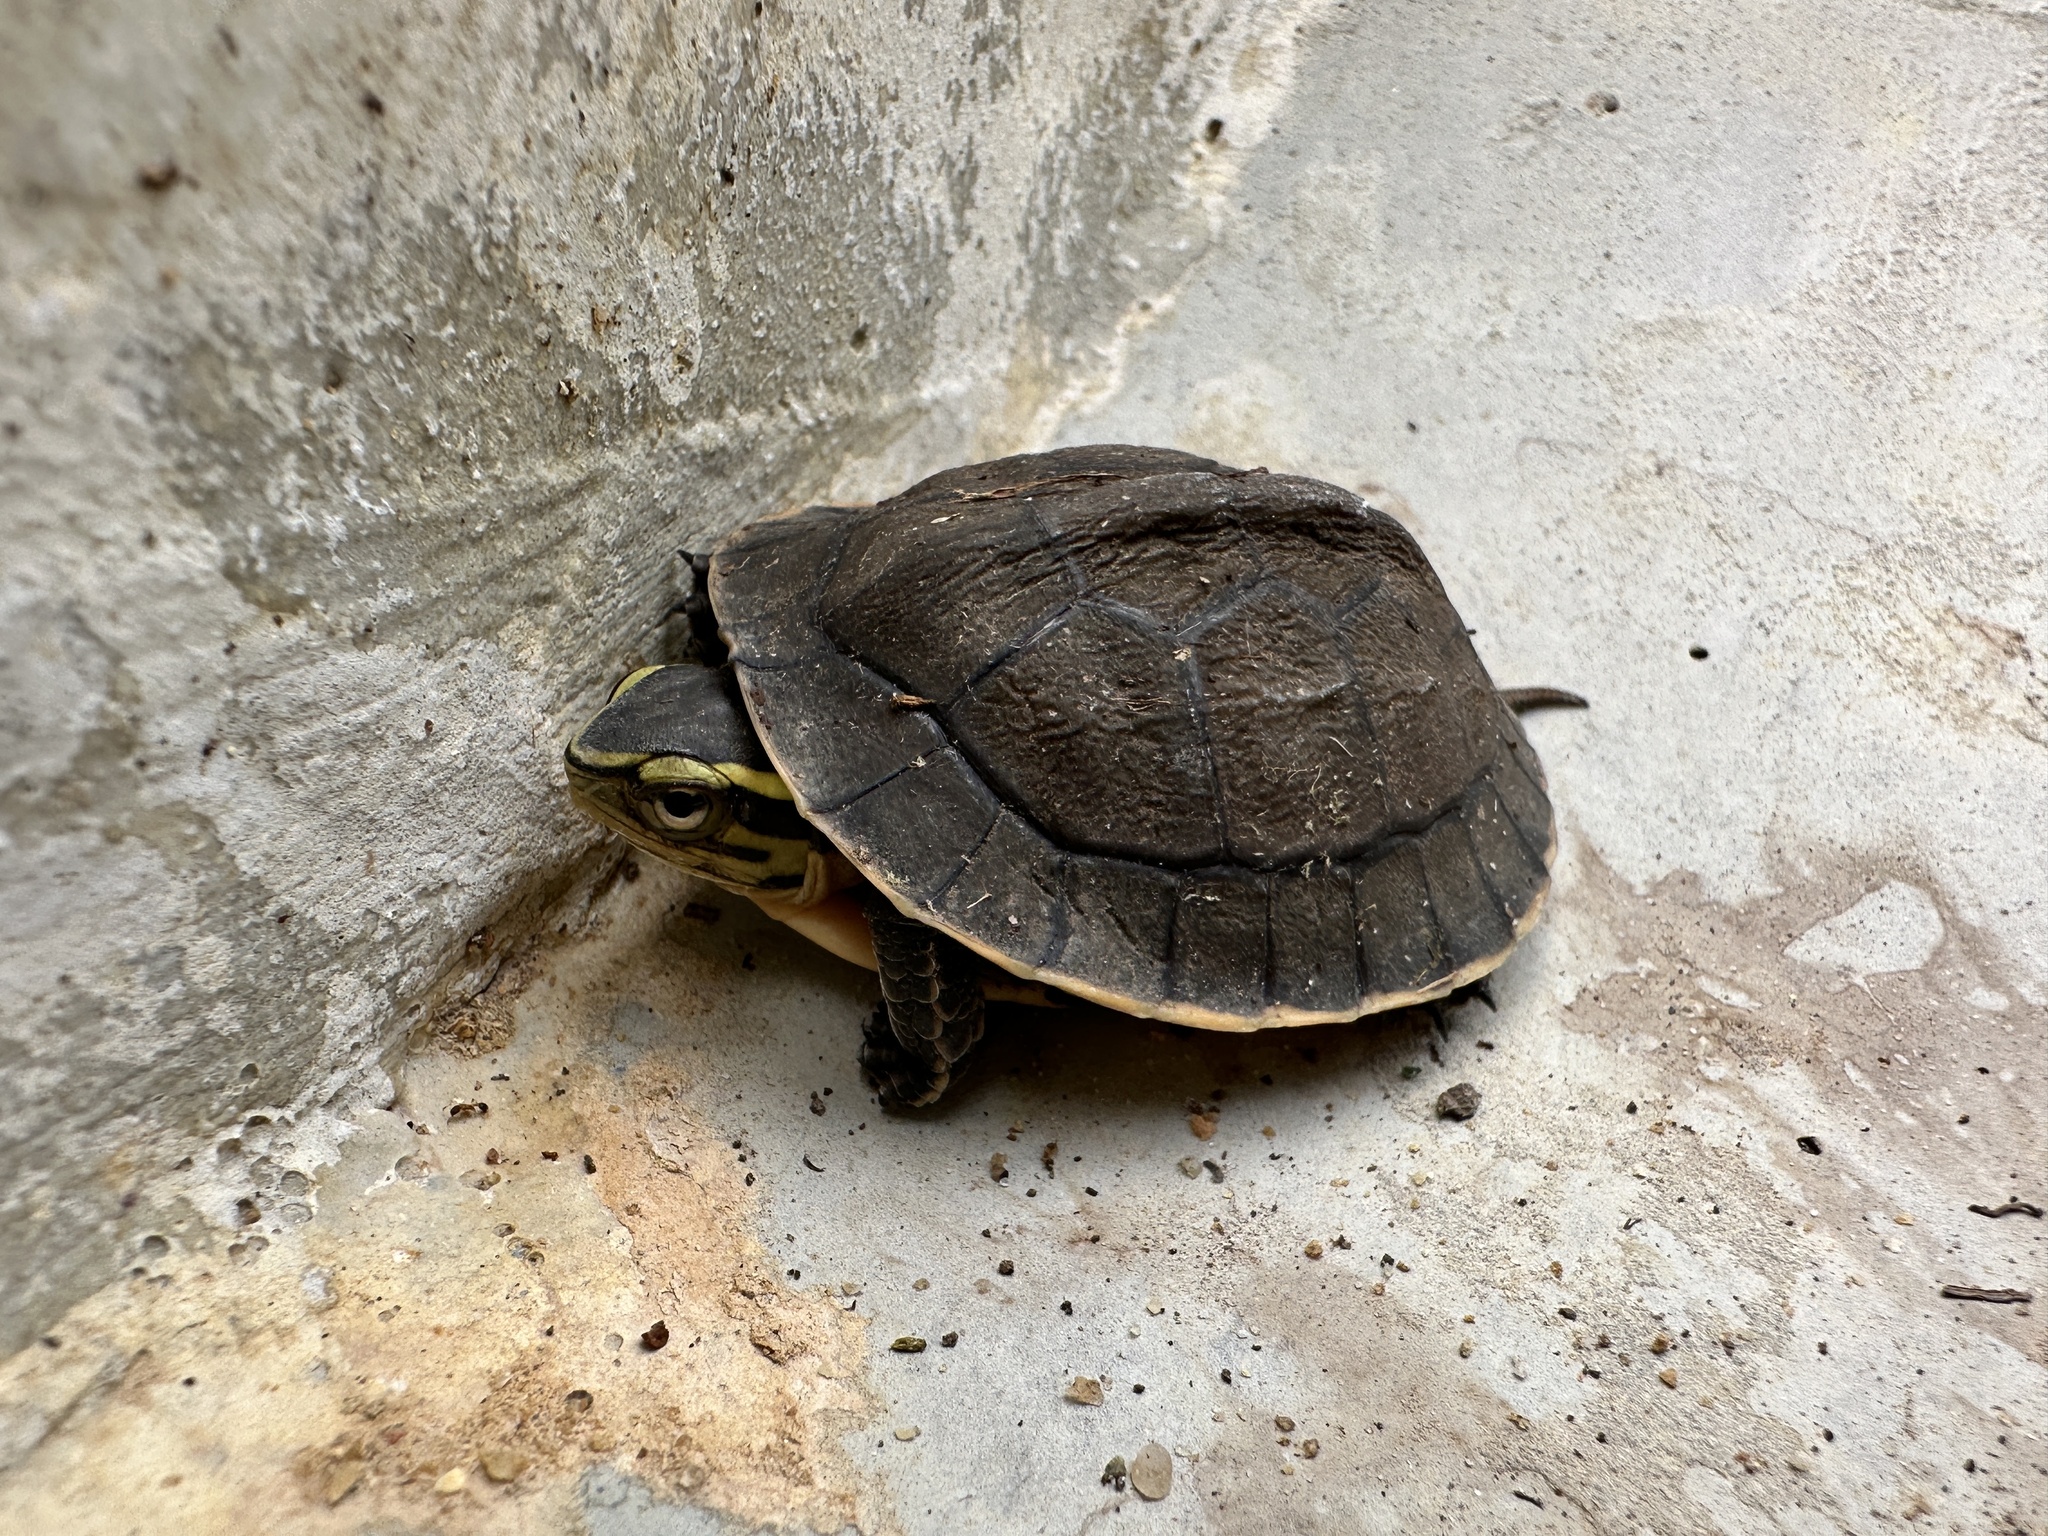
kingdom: Animalia
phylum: Chordata
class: Testudines
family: Geoemydidae
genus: Cuora
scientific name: Cuora amboinensis
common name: Southeast asian box turtle
